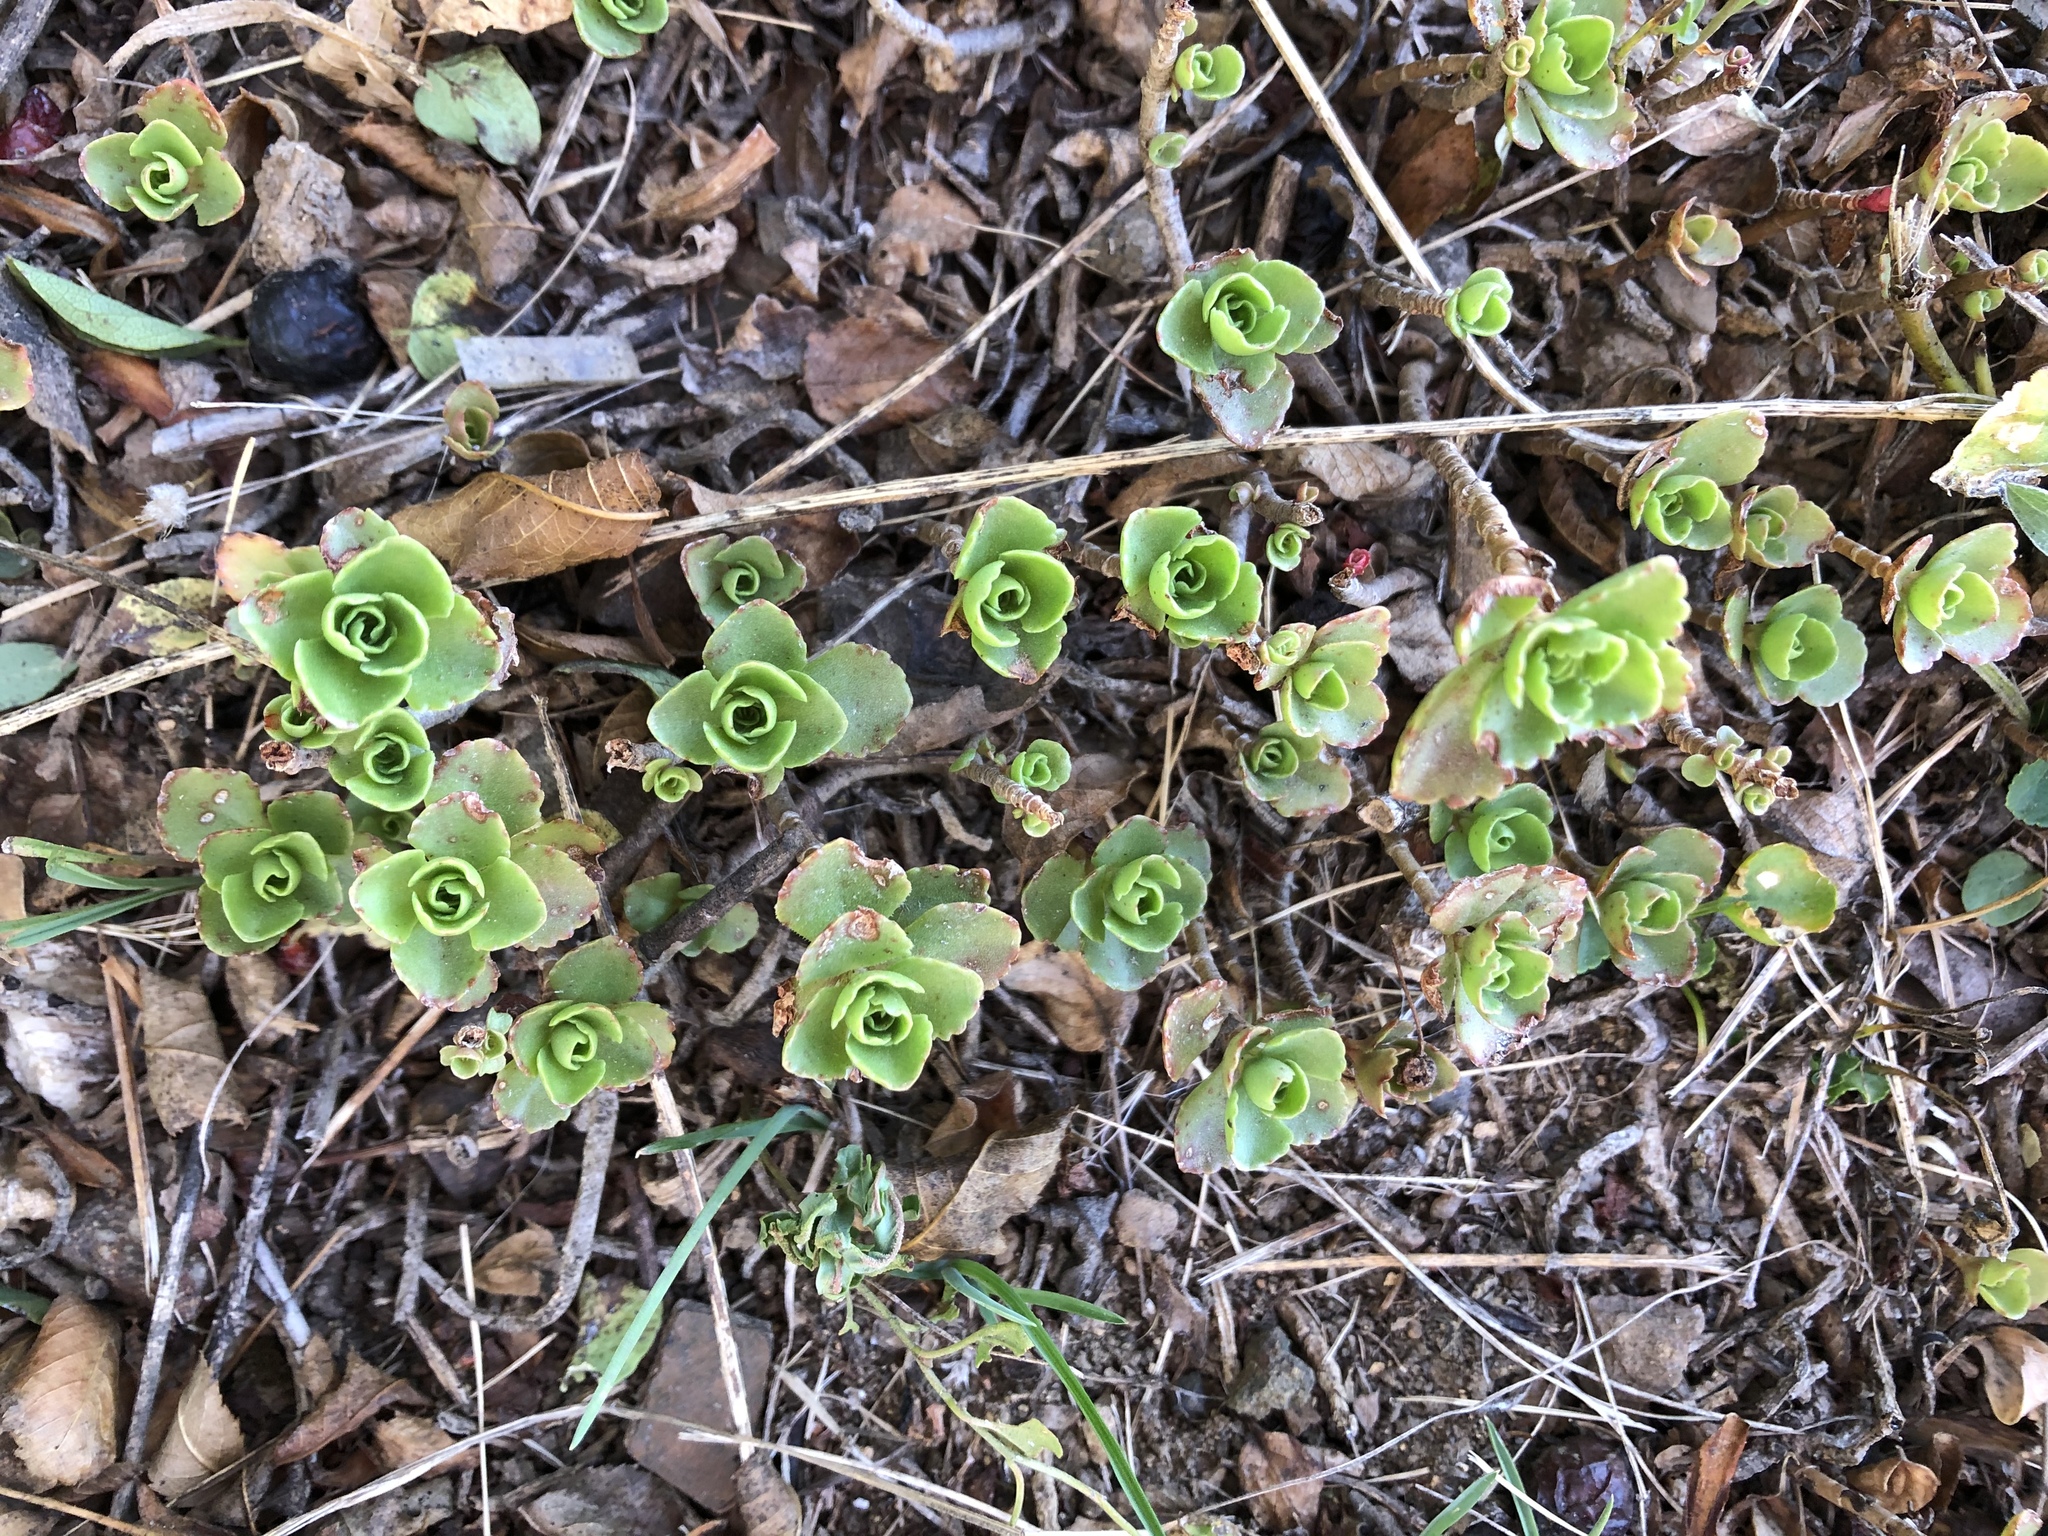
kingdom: Plantae
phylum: Tracheophyta
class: Magnoliopsida
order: Saxifragales
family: Crassulaceae
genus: Phedimus
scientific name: Phedimus spurius
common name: Caucasian stonecrop
